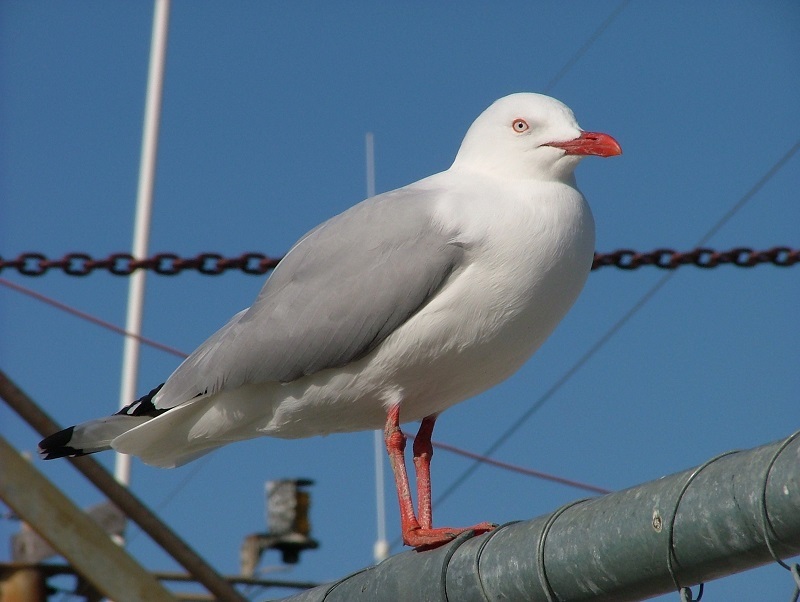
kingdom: Animalia
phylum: Chordata
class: Aves
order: Charadriiformes
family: Laridae
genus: Chroicocephalus
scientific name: Chroicocephalus novaehollandiae
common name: Silver gull
